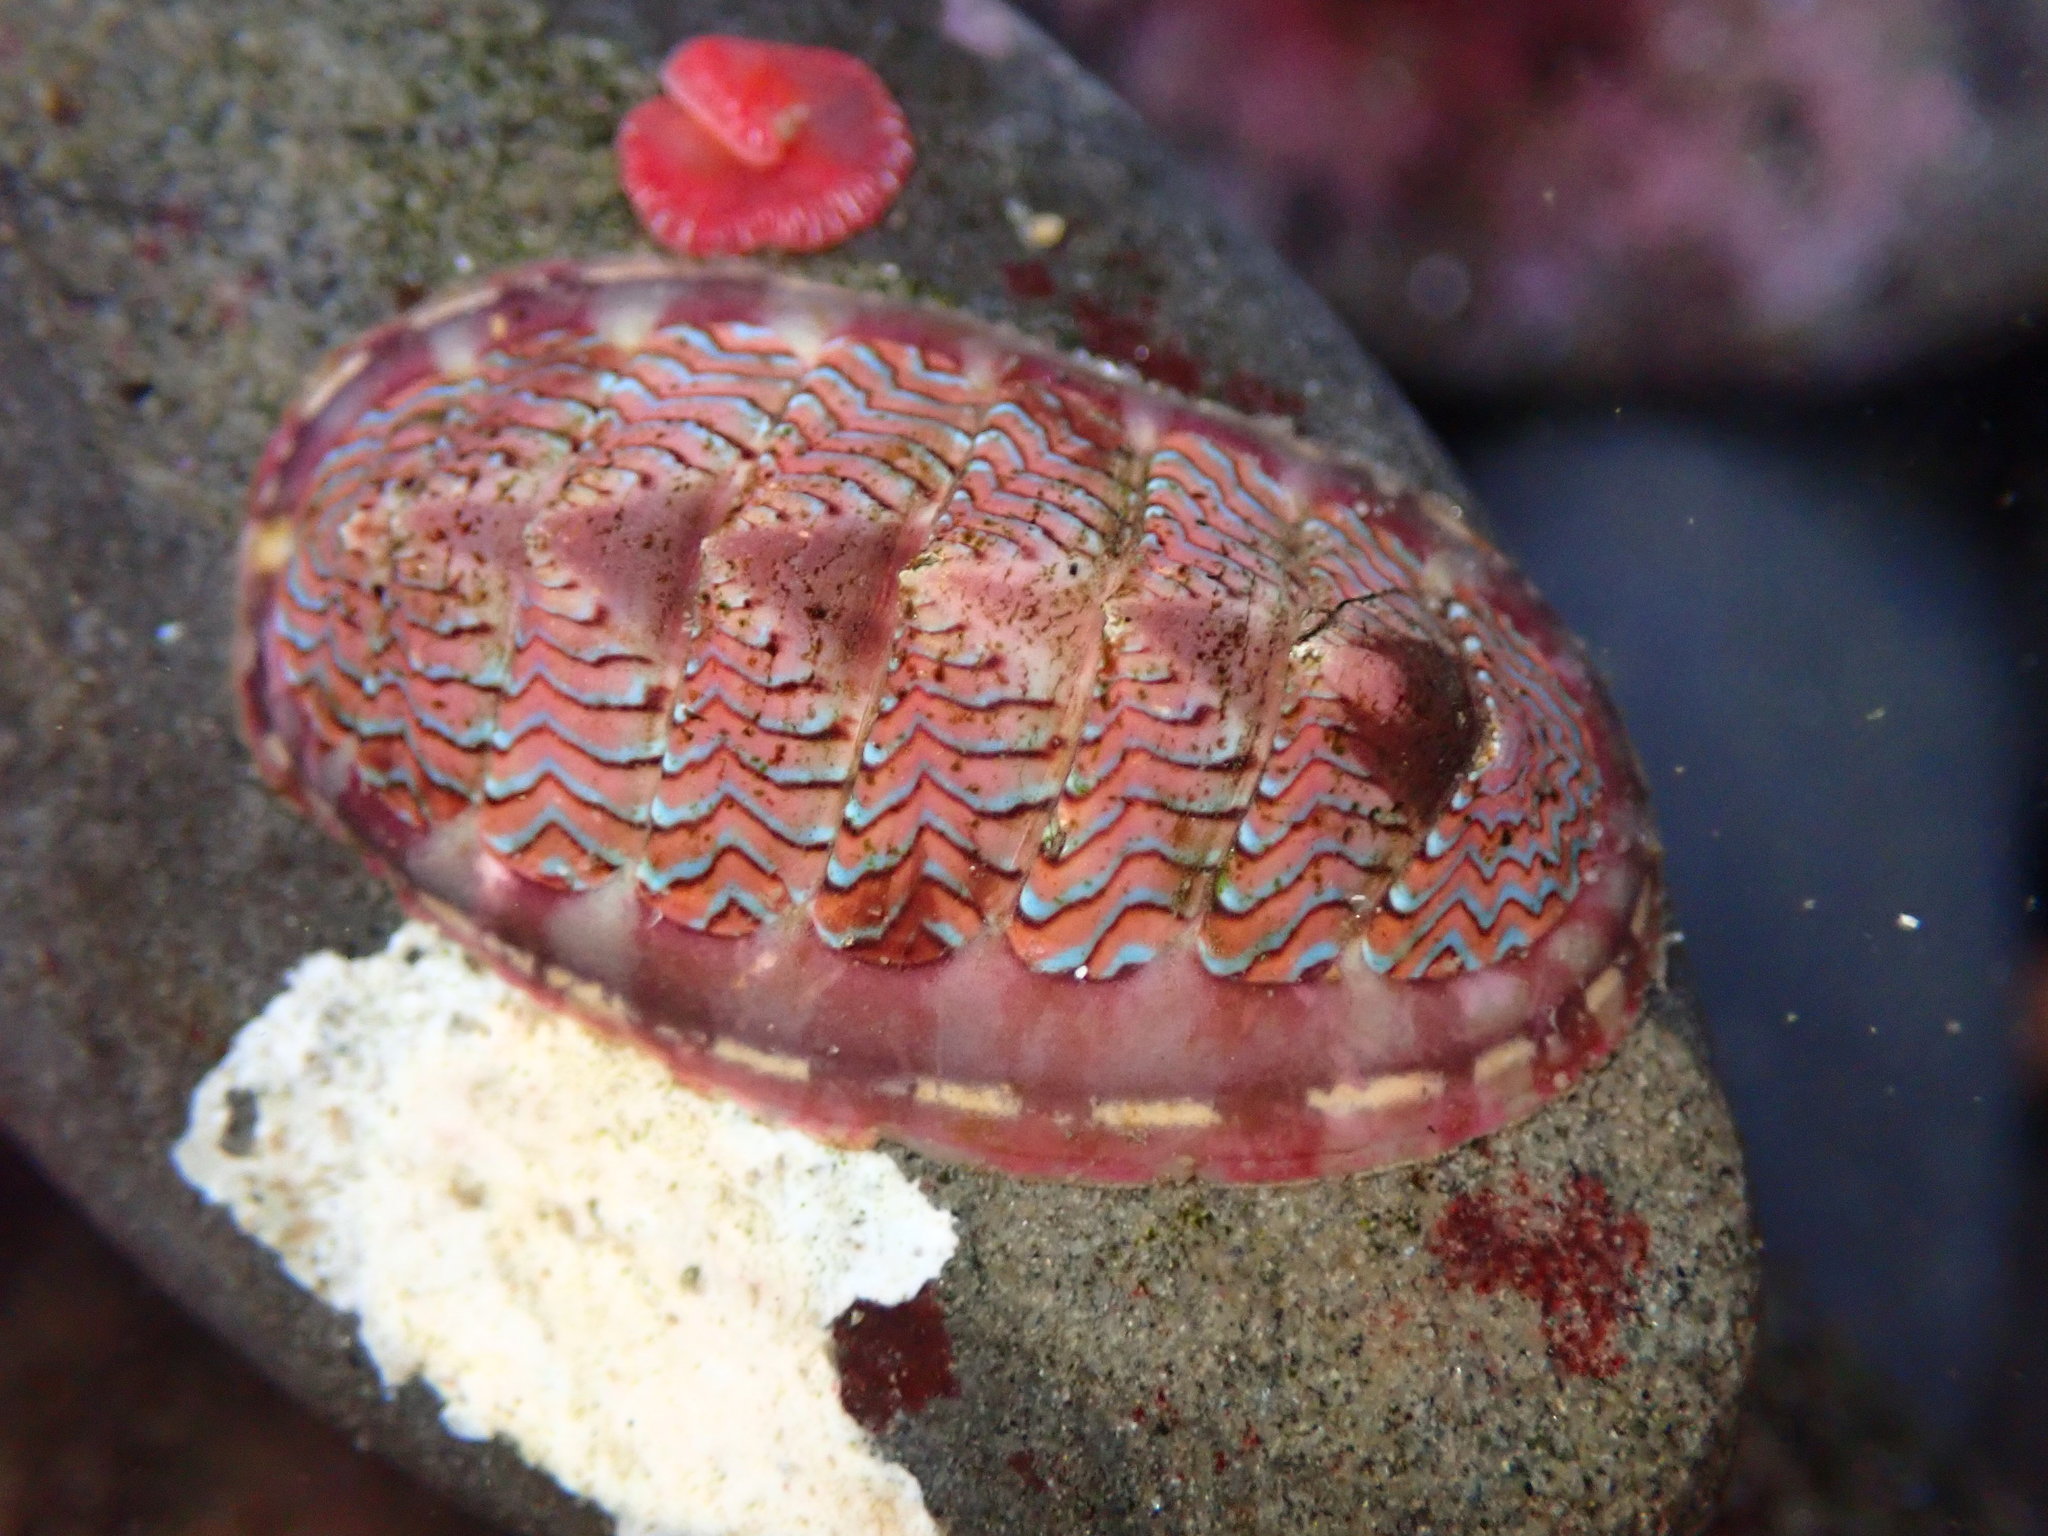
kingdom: Animalia
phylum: Mollusca
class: Polyplacophora
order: Chitonida
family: Tonicellidae
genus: Tonicella
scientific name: Tonicella lokii
